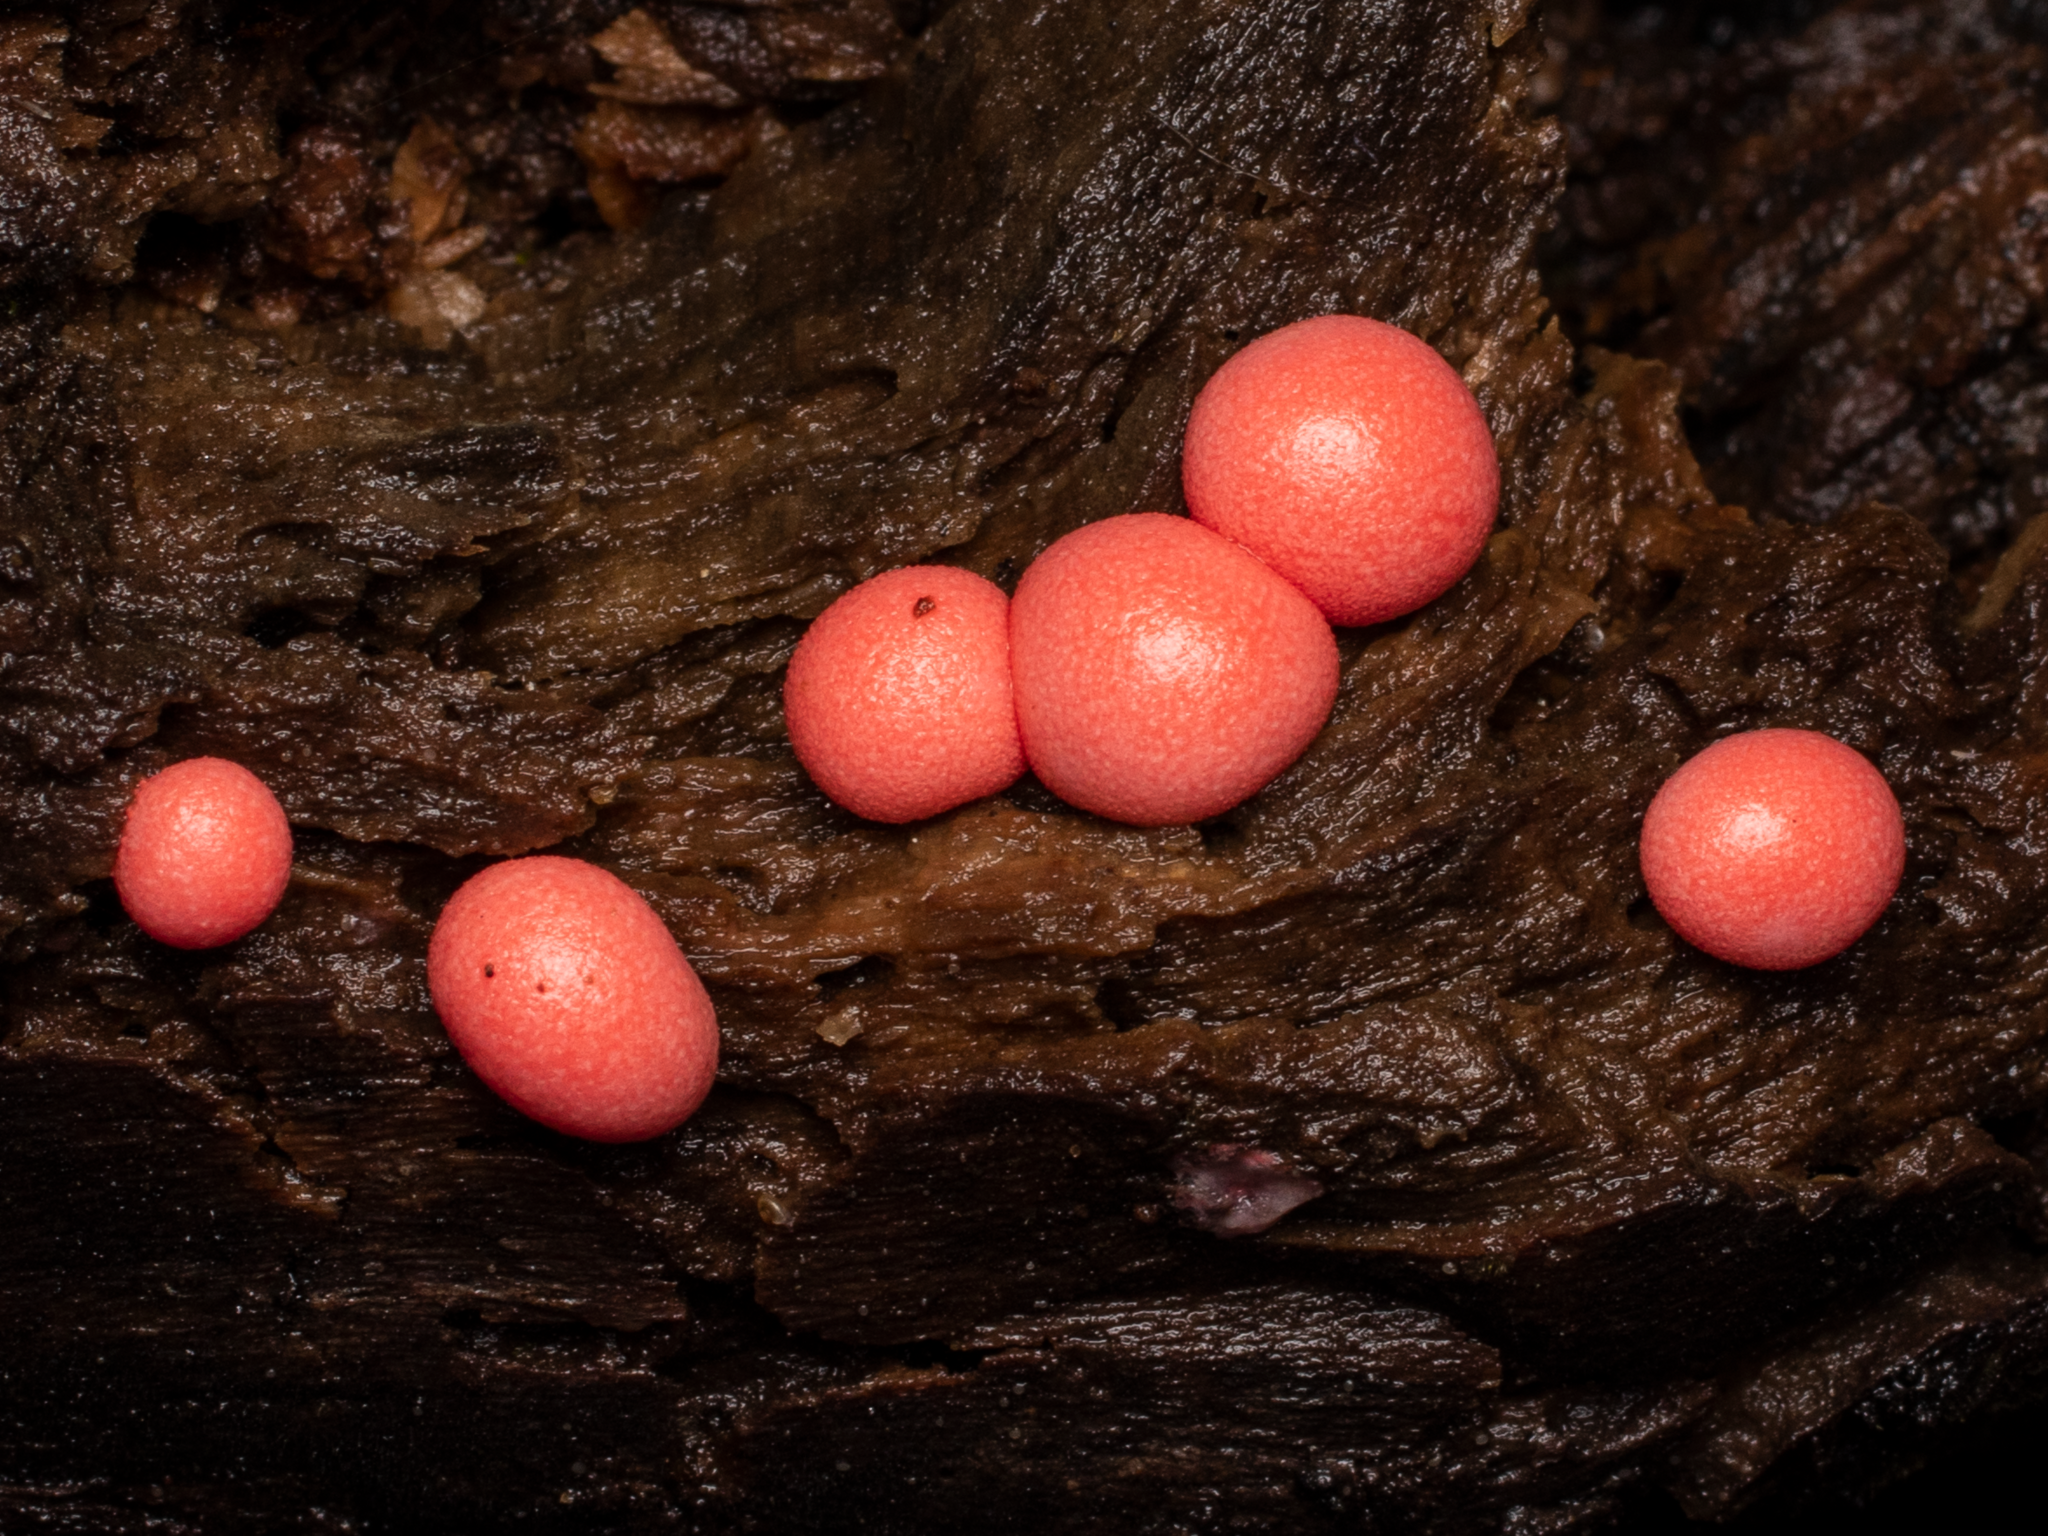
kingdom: Protozoa
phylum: Mycetozoa
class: Myxomycetes
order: Cribrariales
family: Tubiferaceae
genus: Lycogala
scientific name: Lycogala epidendrum
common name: Wolf's milk
